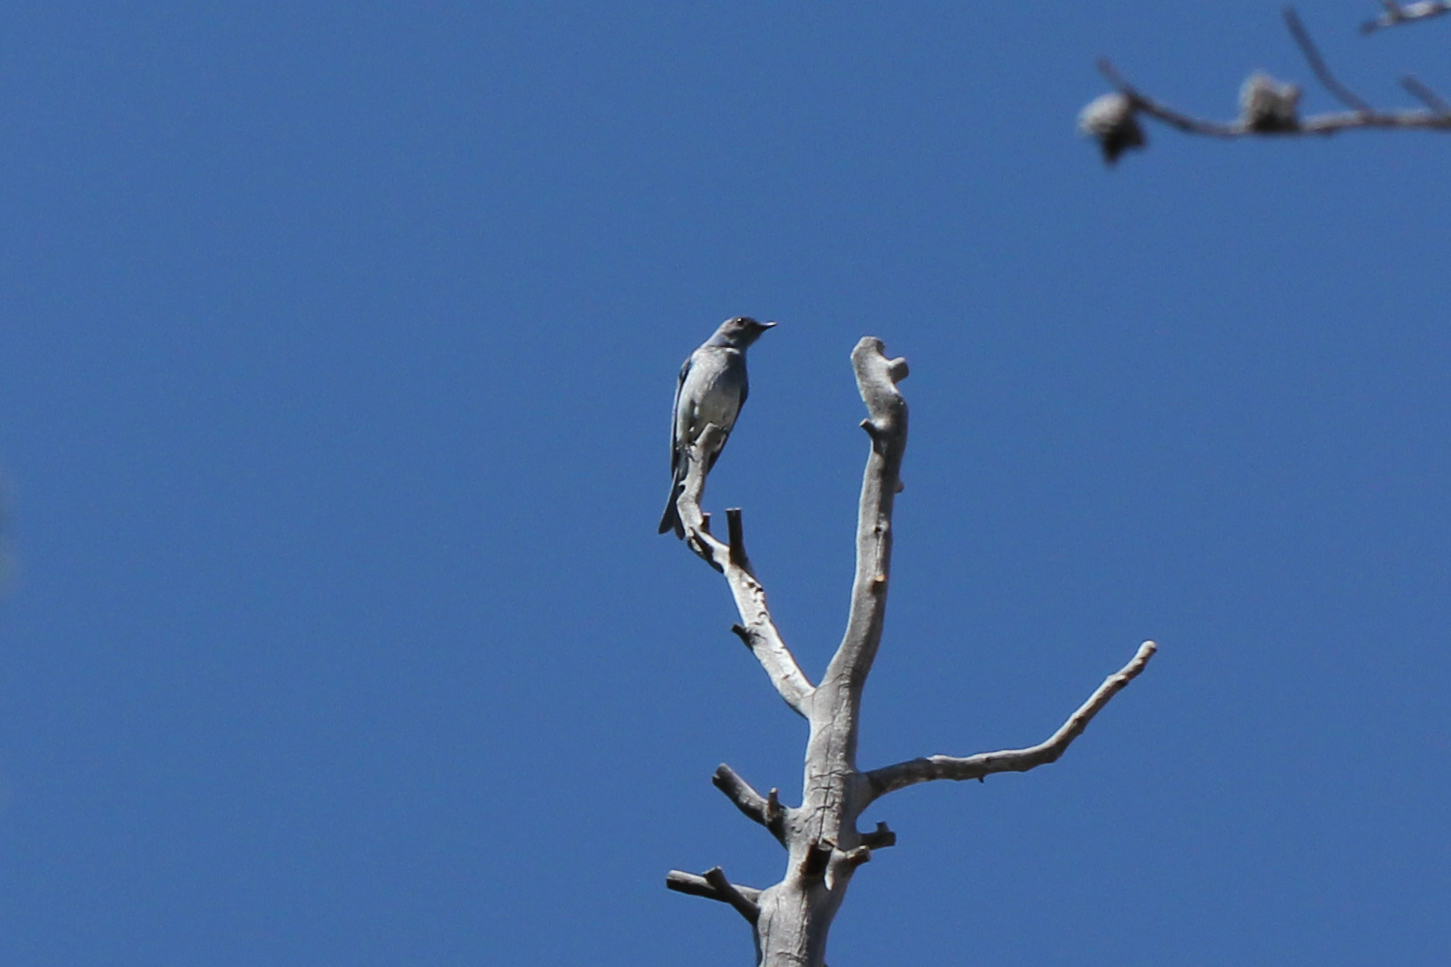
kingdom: Animalia
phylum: Chordata
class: Aves
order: Passeriformes
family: Turdidae
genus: Sialia
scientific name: Sialia currucoides
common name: Mountain bluebird
